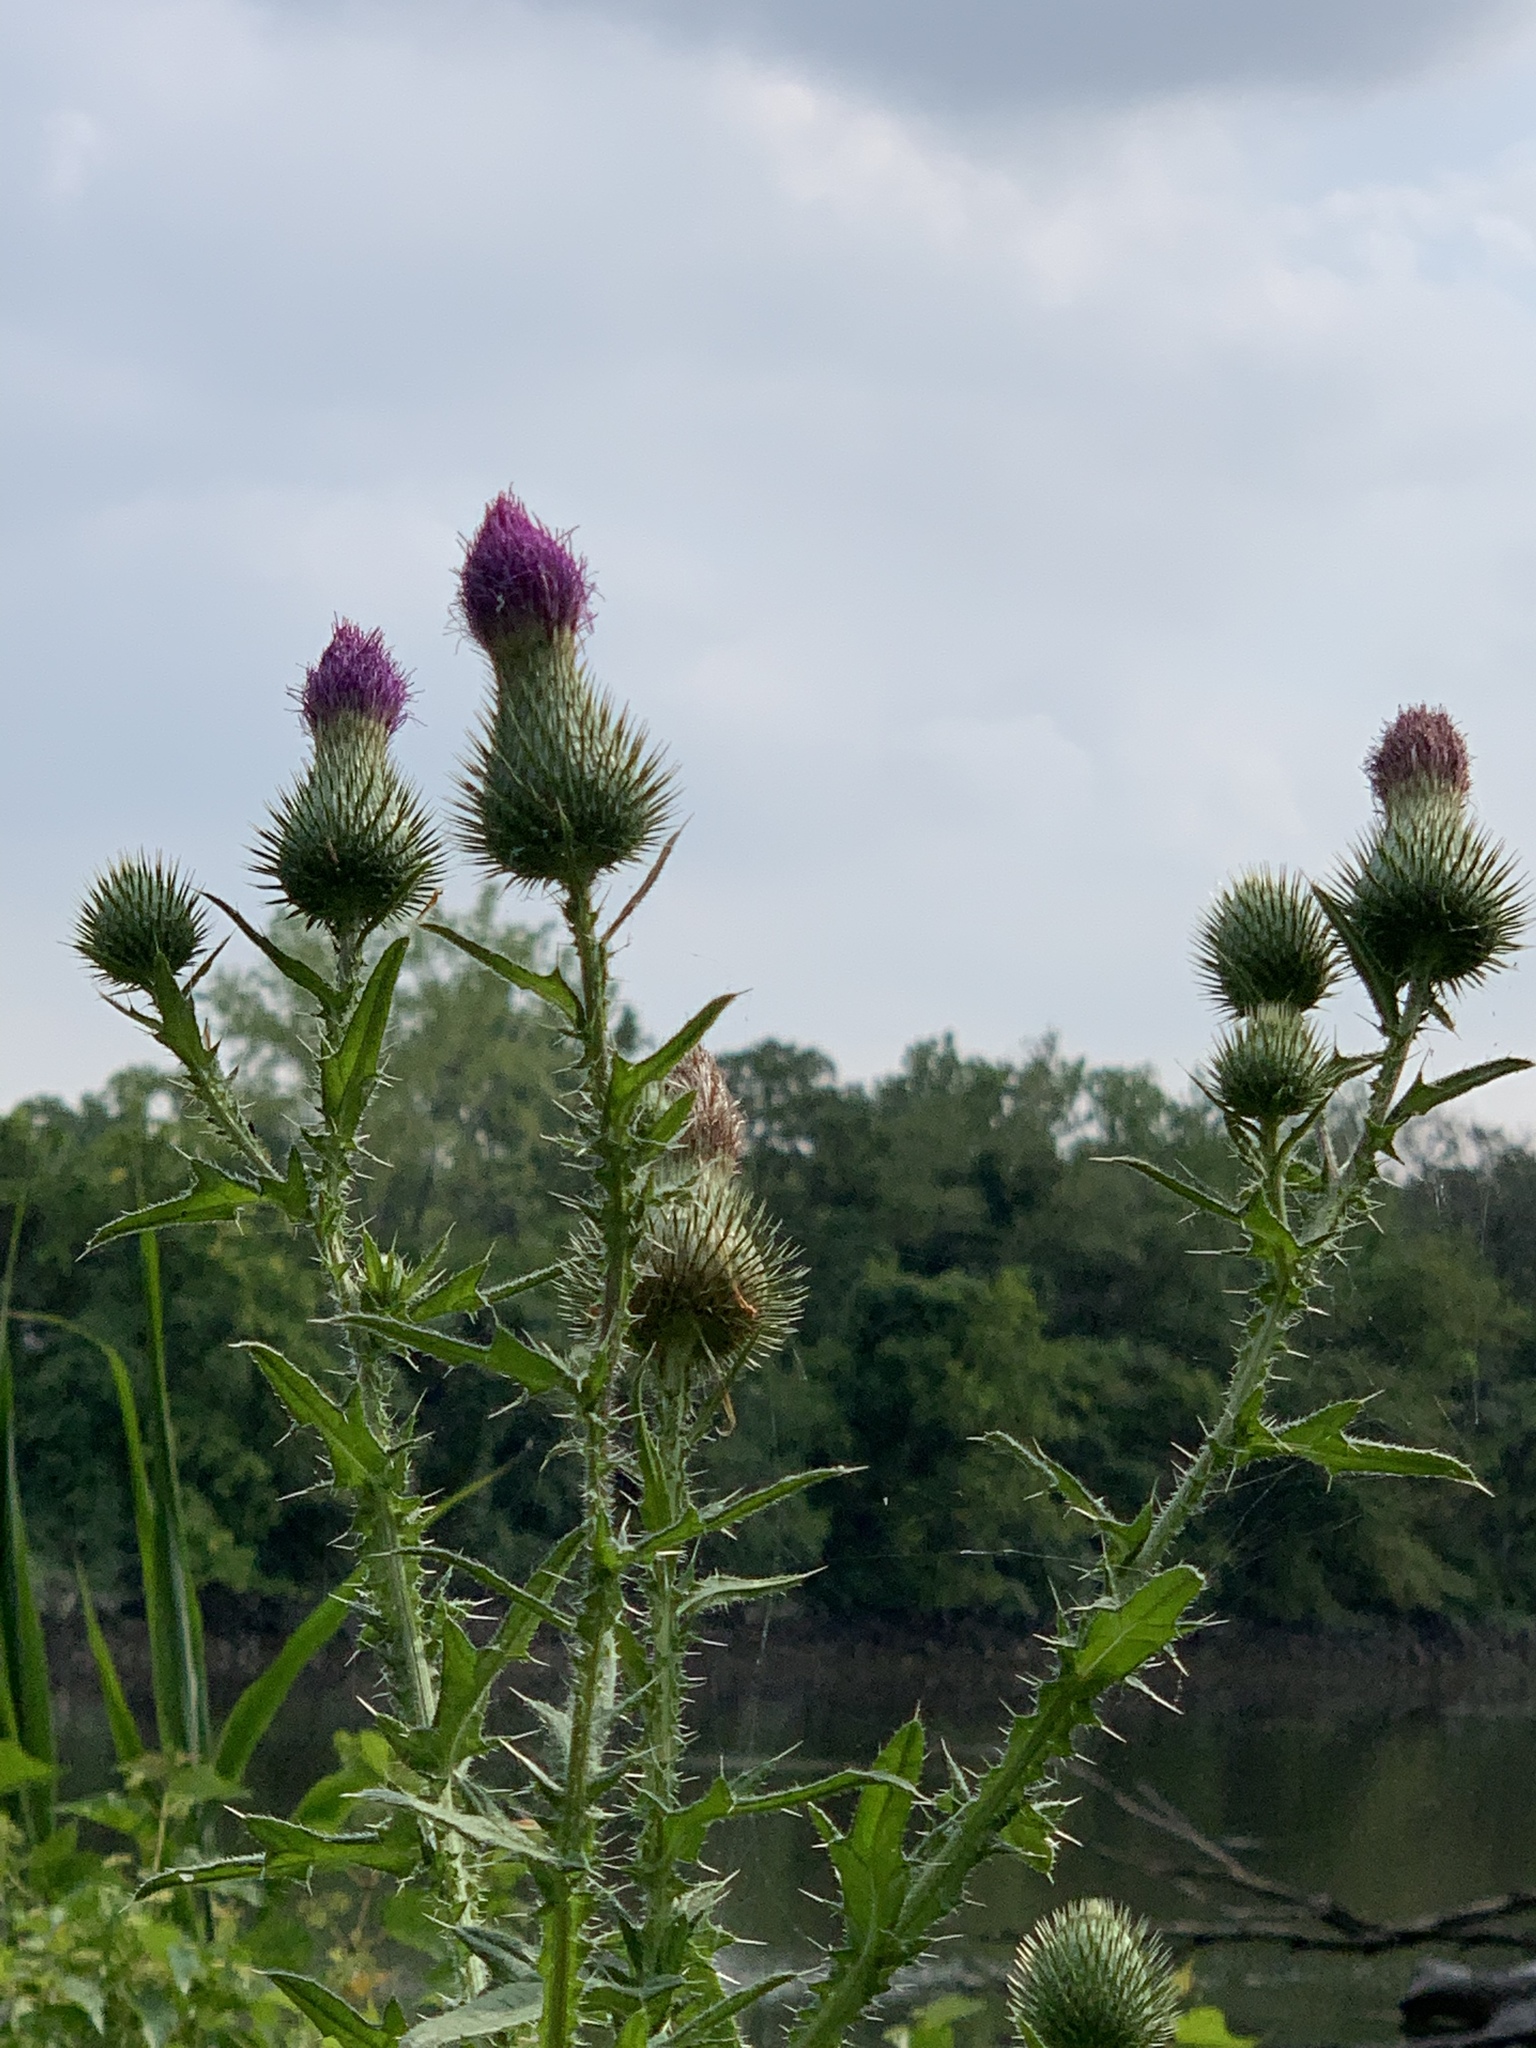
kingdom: Plantae
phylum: Tracheophyta
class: Magnoliopsida
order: Asterales
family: Asteraceae
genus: Cirsium
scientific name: Cirsium vulgare
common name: Bull thistle
